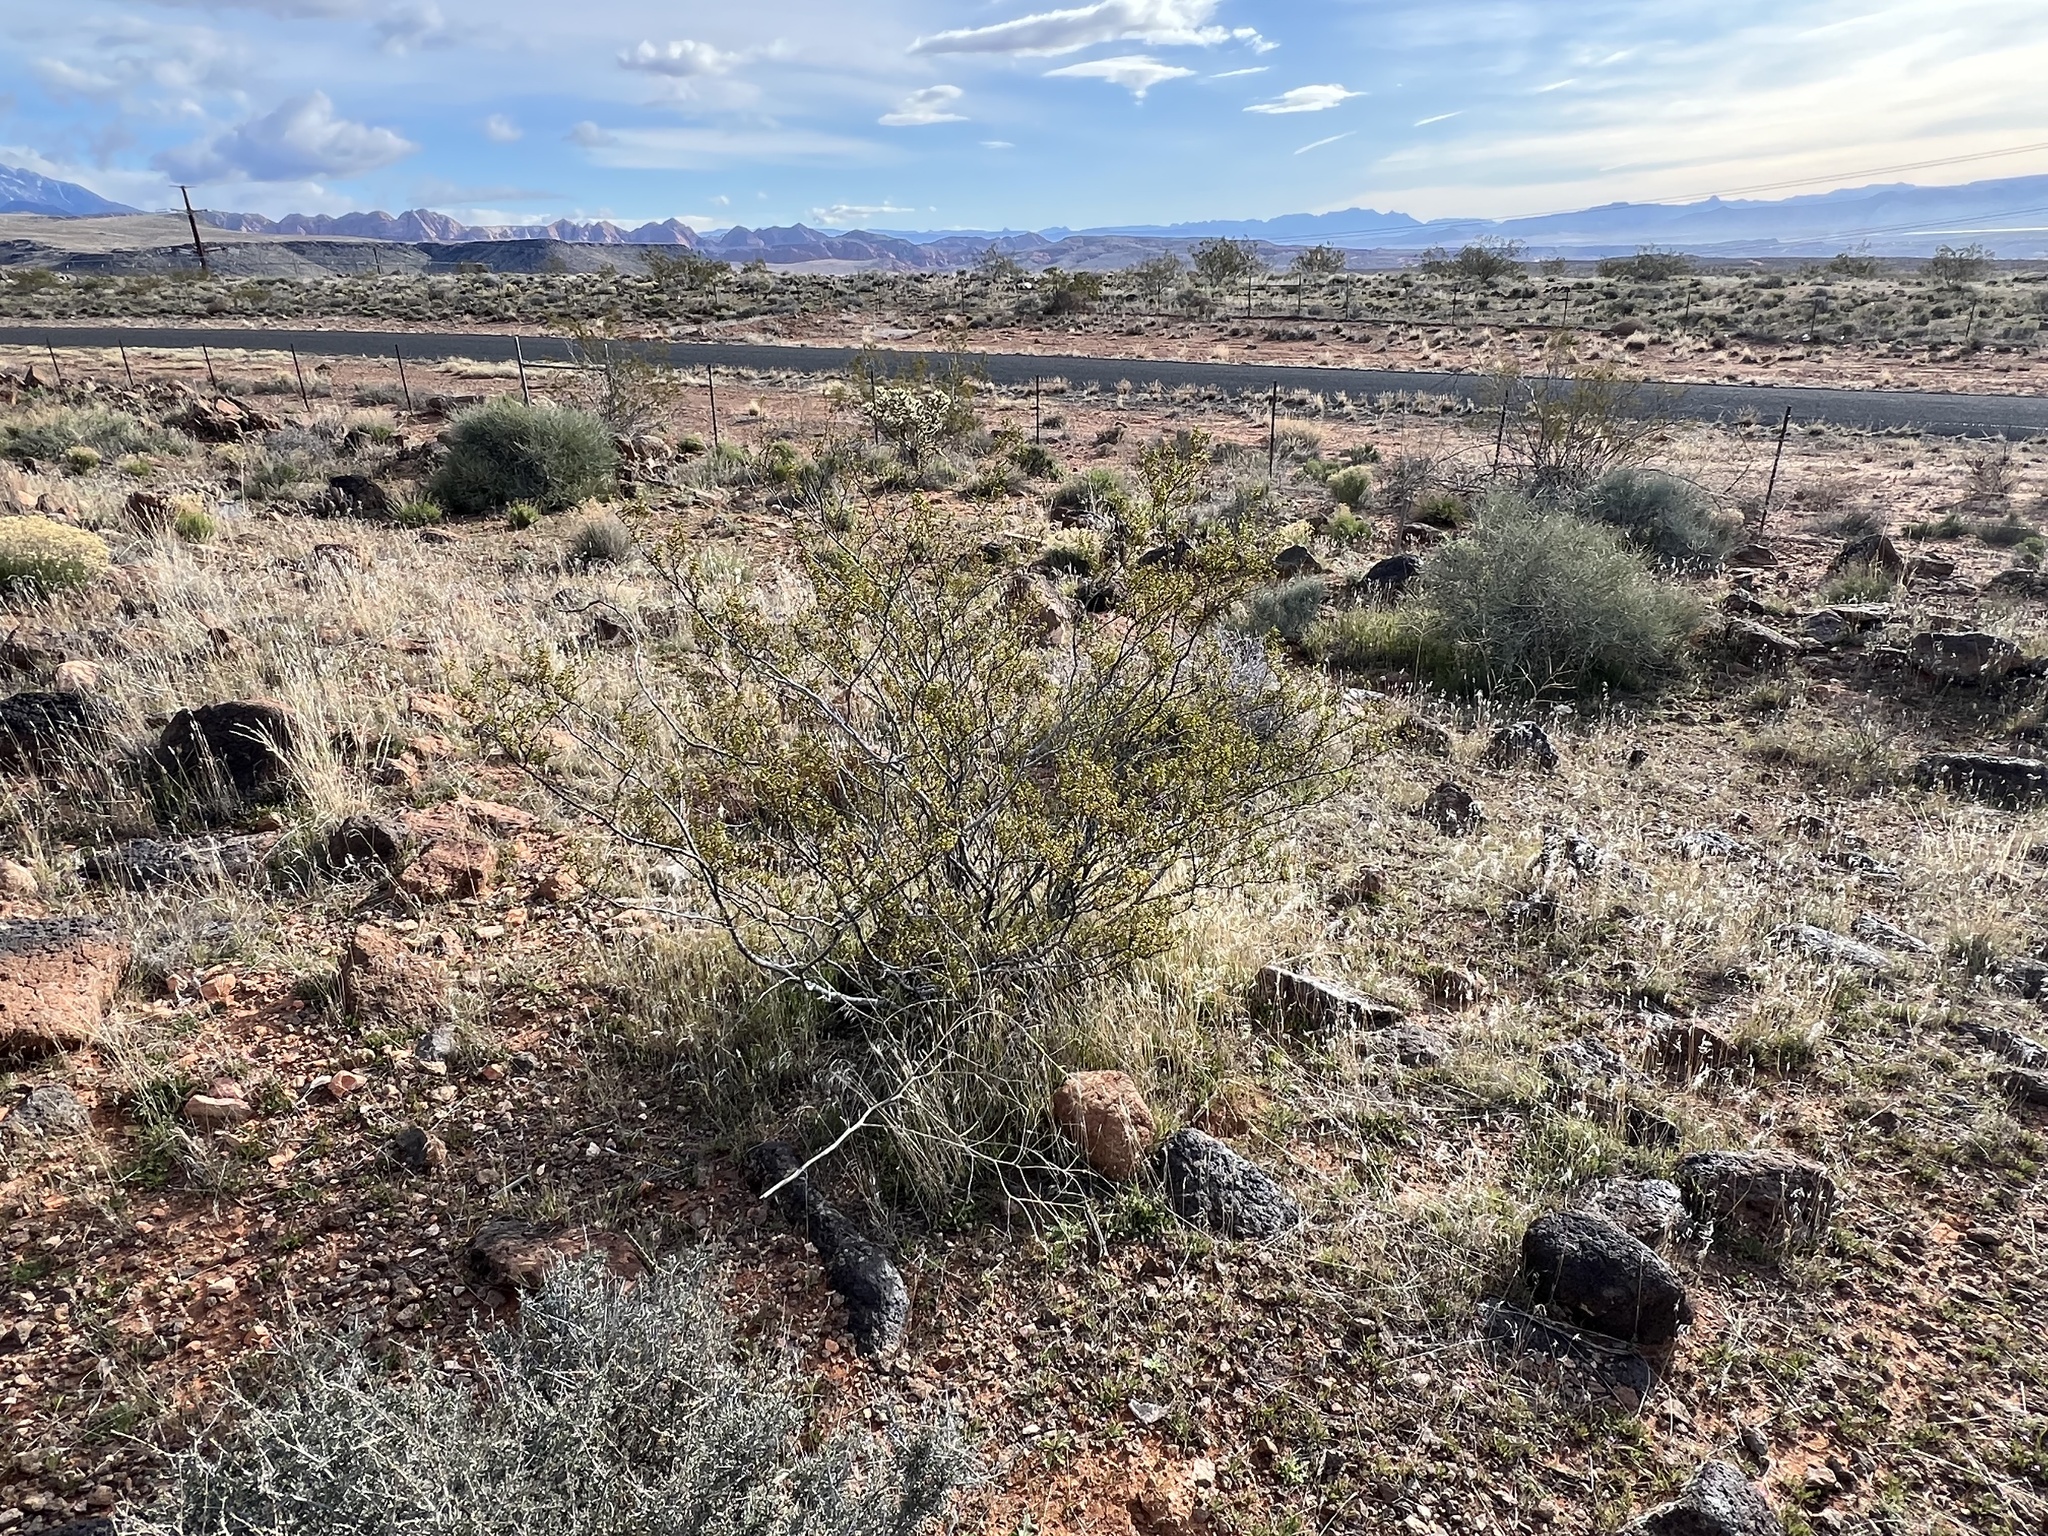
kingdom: Plantae
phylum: Tracheophyta
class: Magnoliopsida
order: Zygophyllales
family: Zygophyllaceae
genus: Larrea
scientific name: Larrea tridentata
